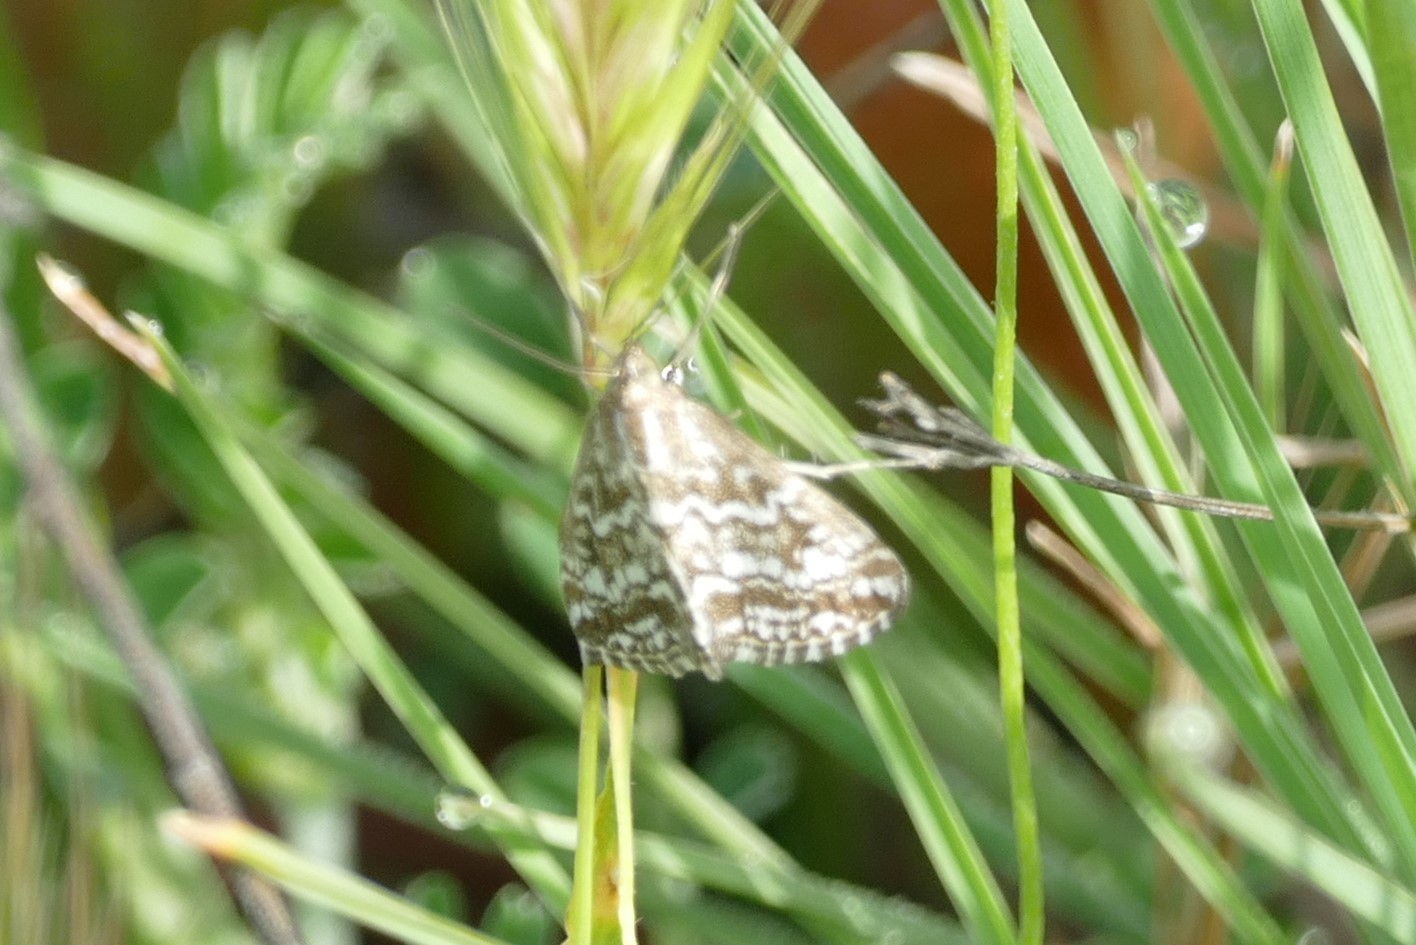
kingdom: Animalia
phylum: Arthropoda
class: Insecta
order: Lepidoptera
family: Crambidae
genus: Evergestis
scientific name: Evergestis frumentalis
